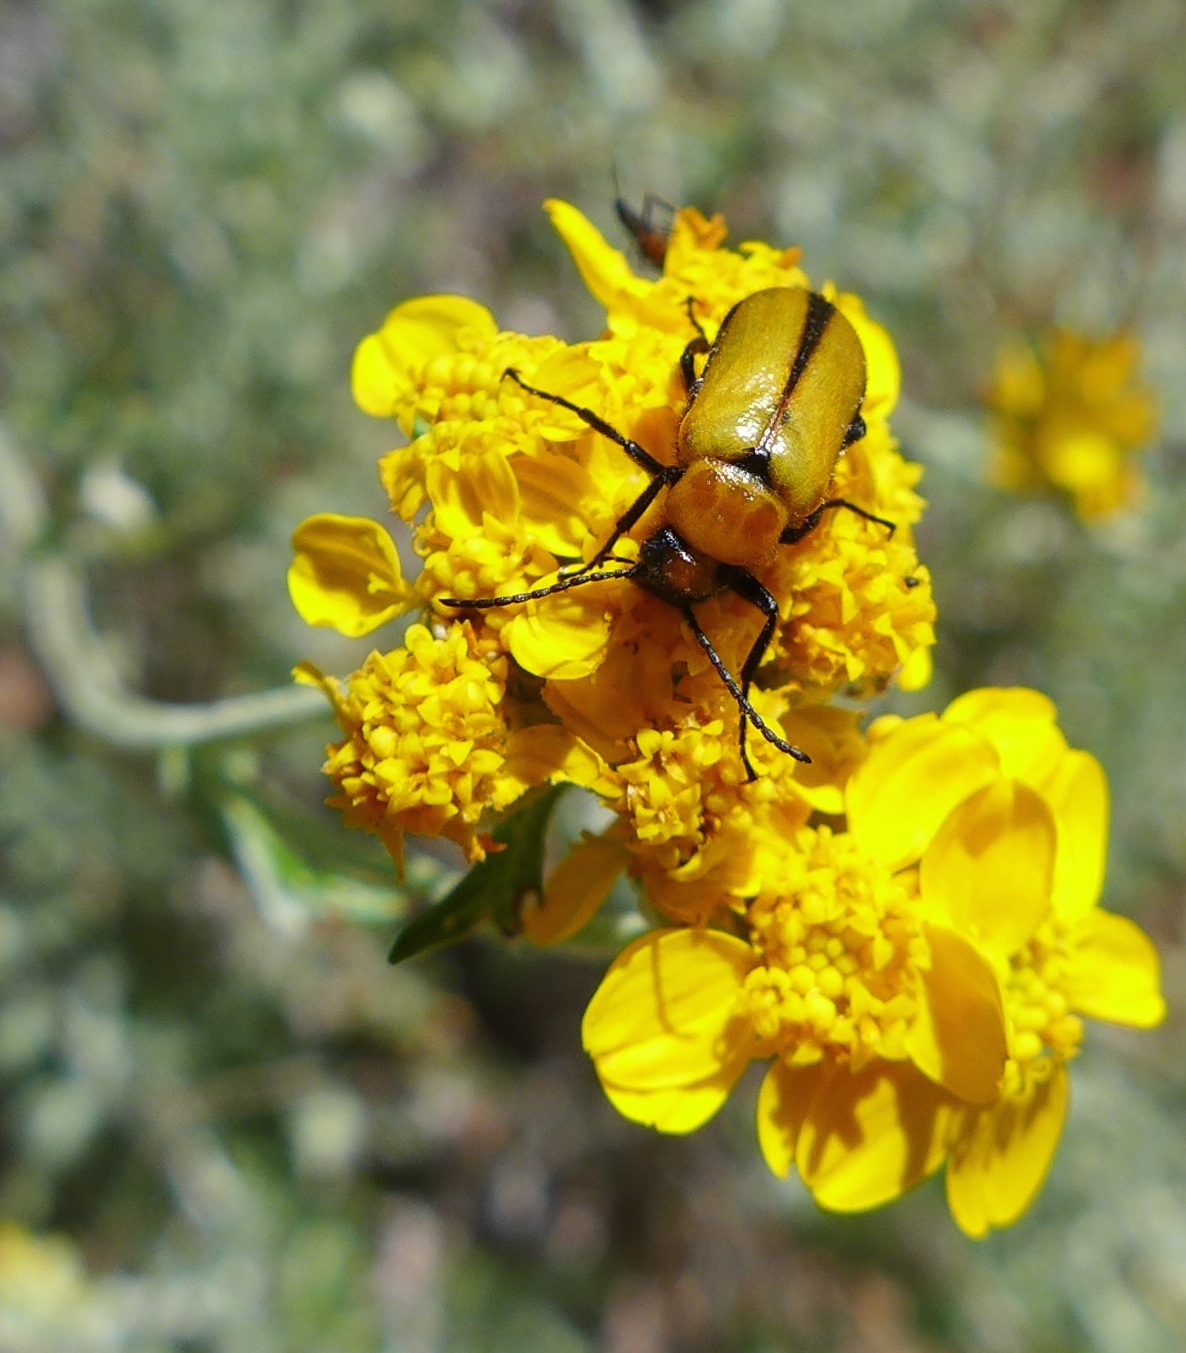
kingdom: Animalia
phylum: Arthropoda
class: Insecta
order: Coleoptera
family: Meloidae
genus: Nemognatha
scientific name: Nemognatha scutellaris
